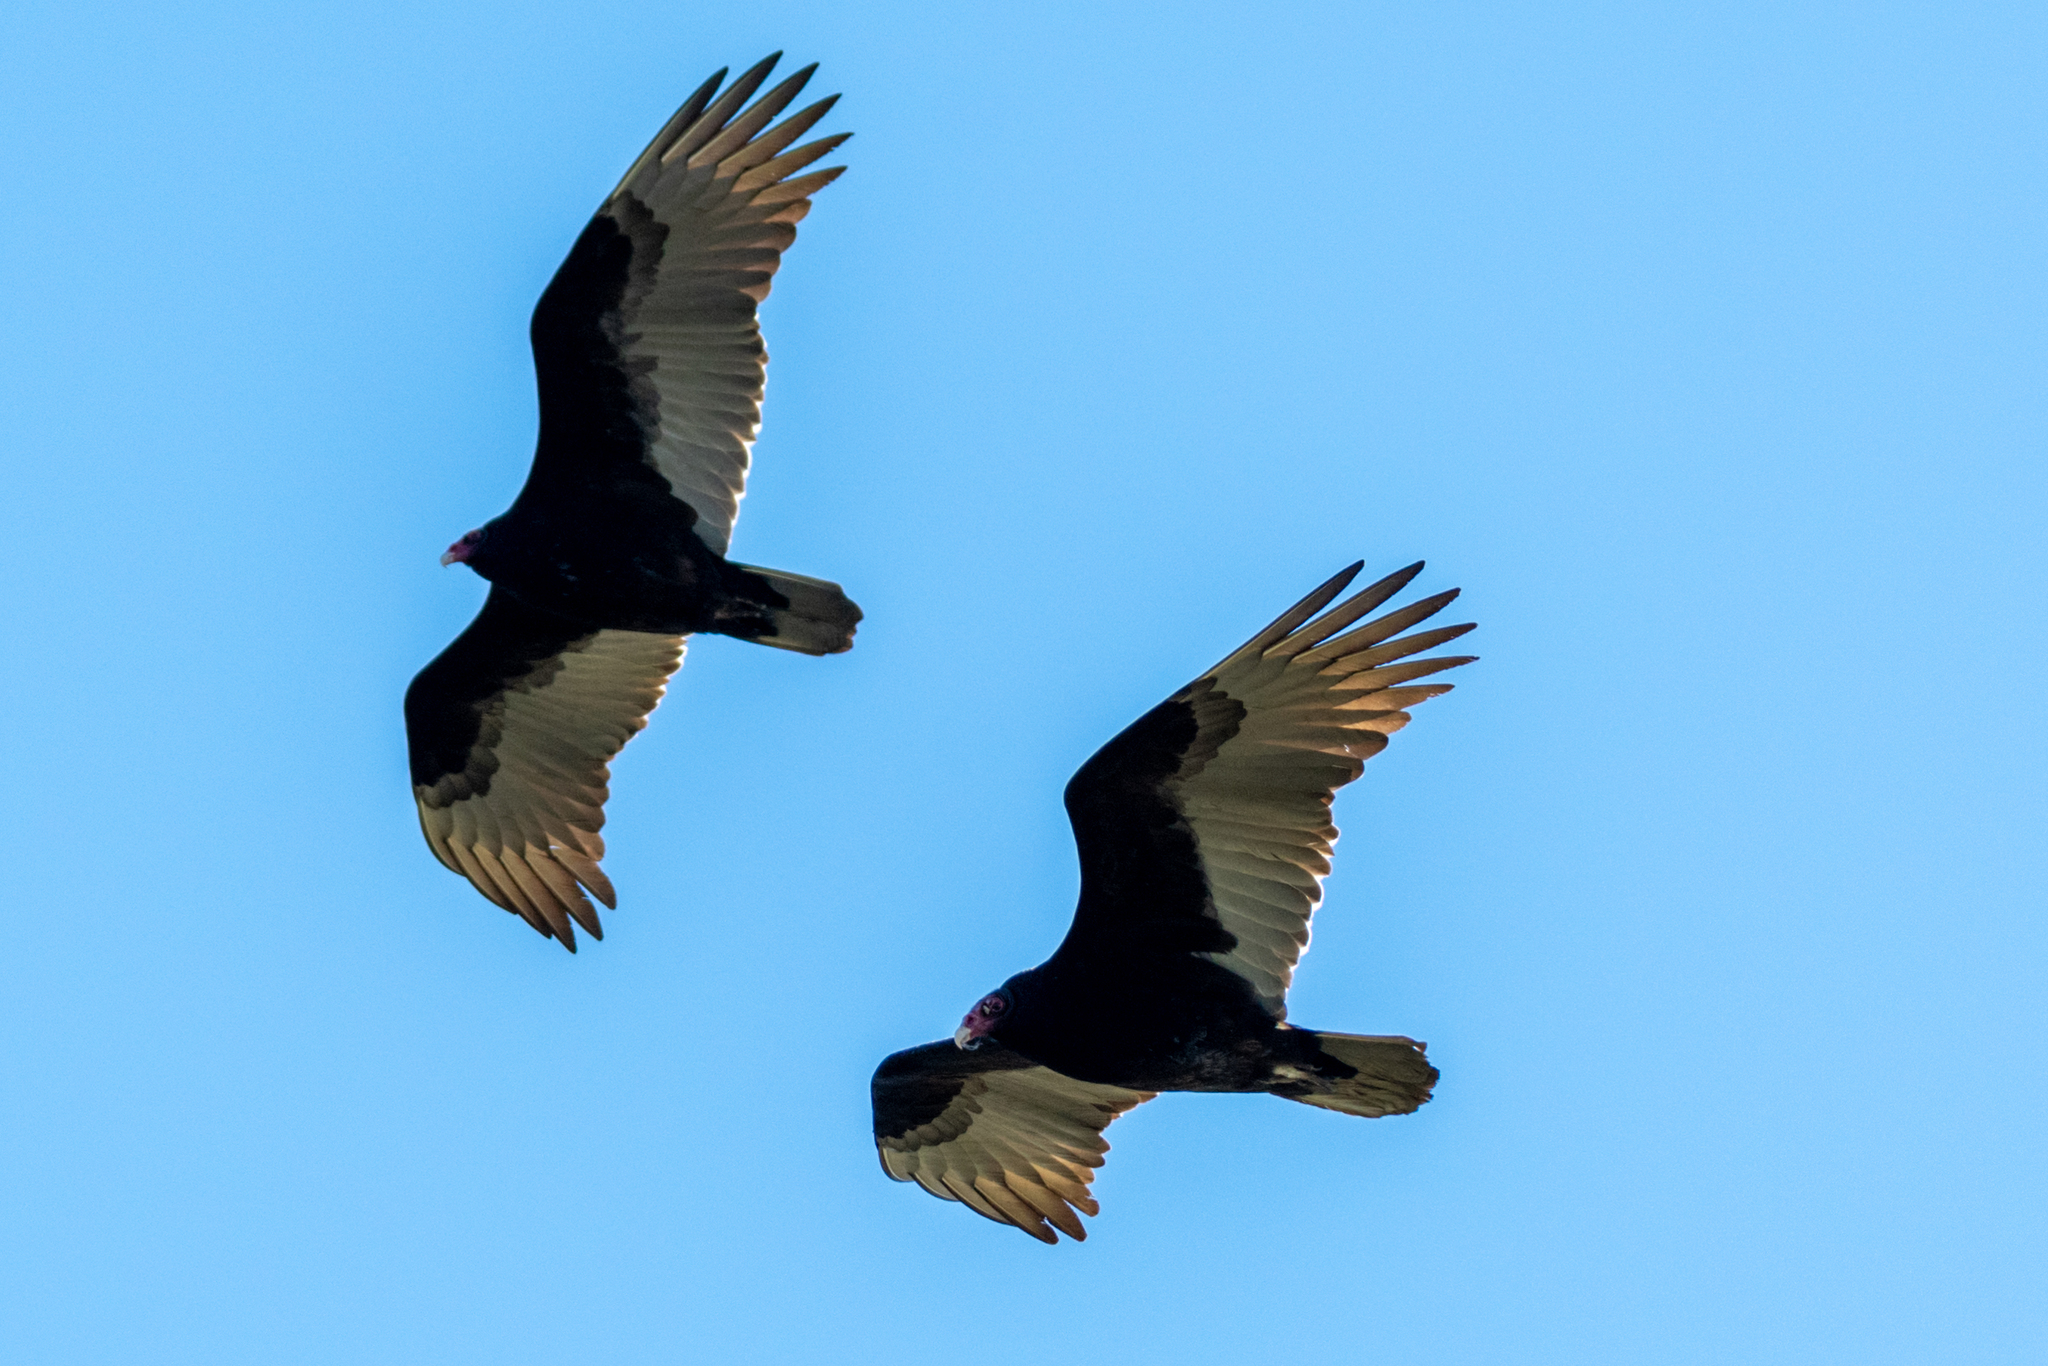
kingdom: Animalia
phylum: Chordata
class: Aves
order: Accipitriformes
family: Cathartidae
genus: Cathartes
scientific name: Cathartes aura
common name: Turkey vulture
